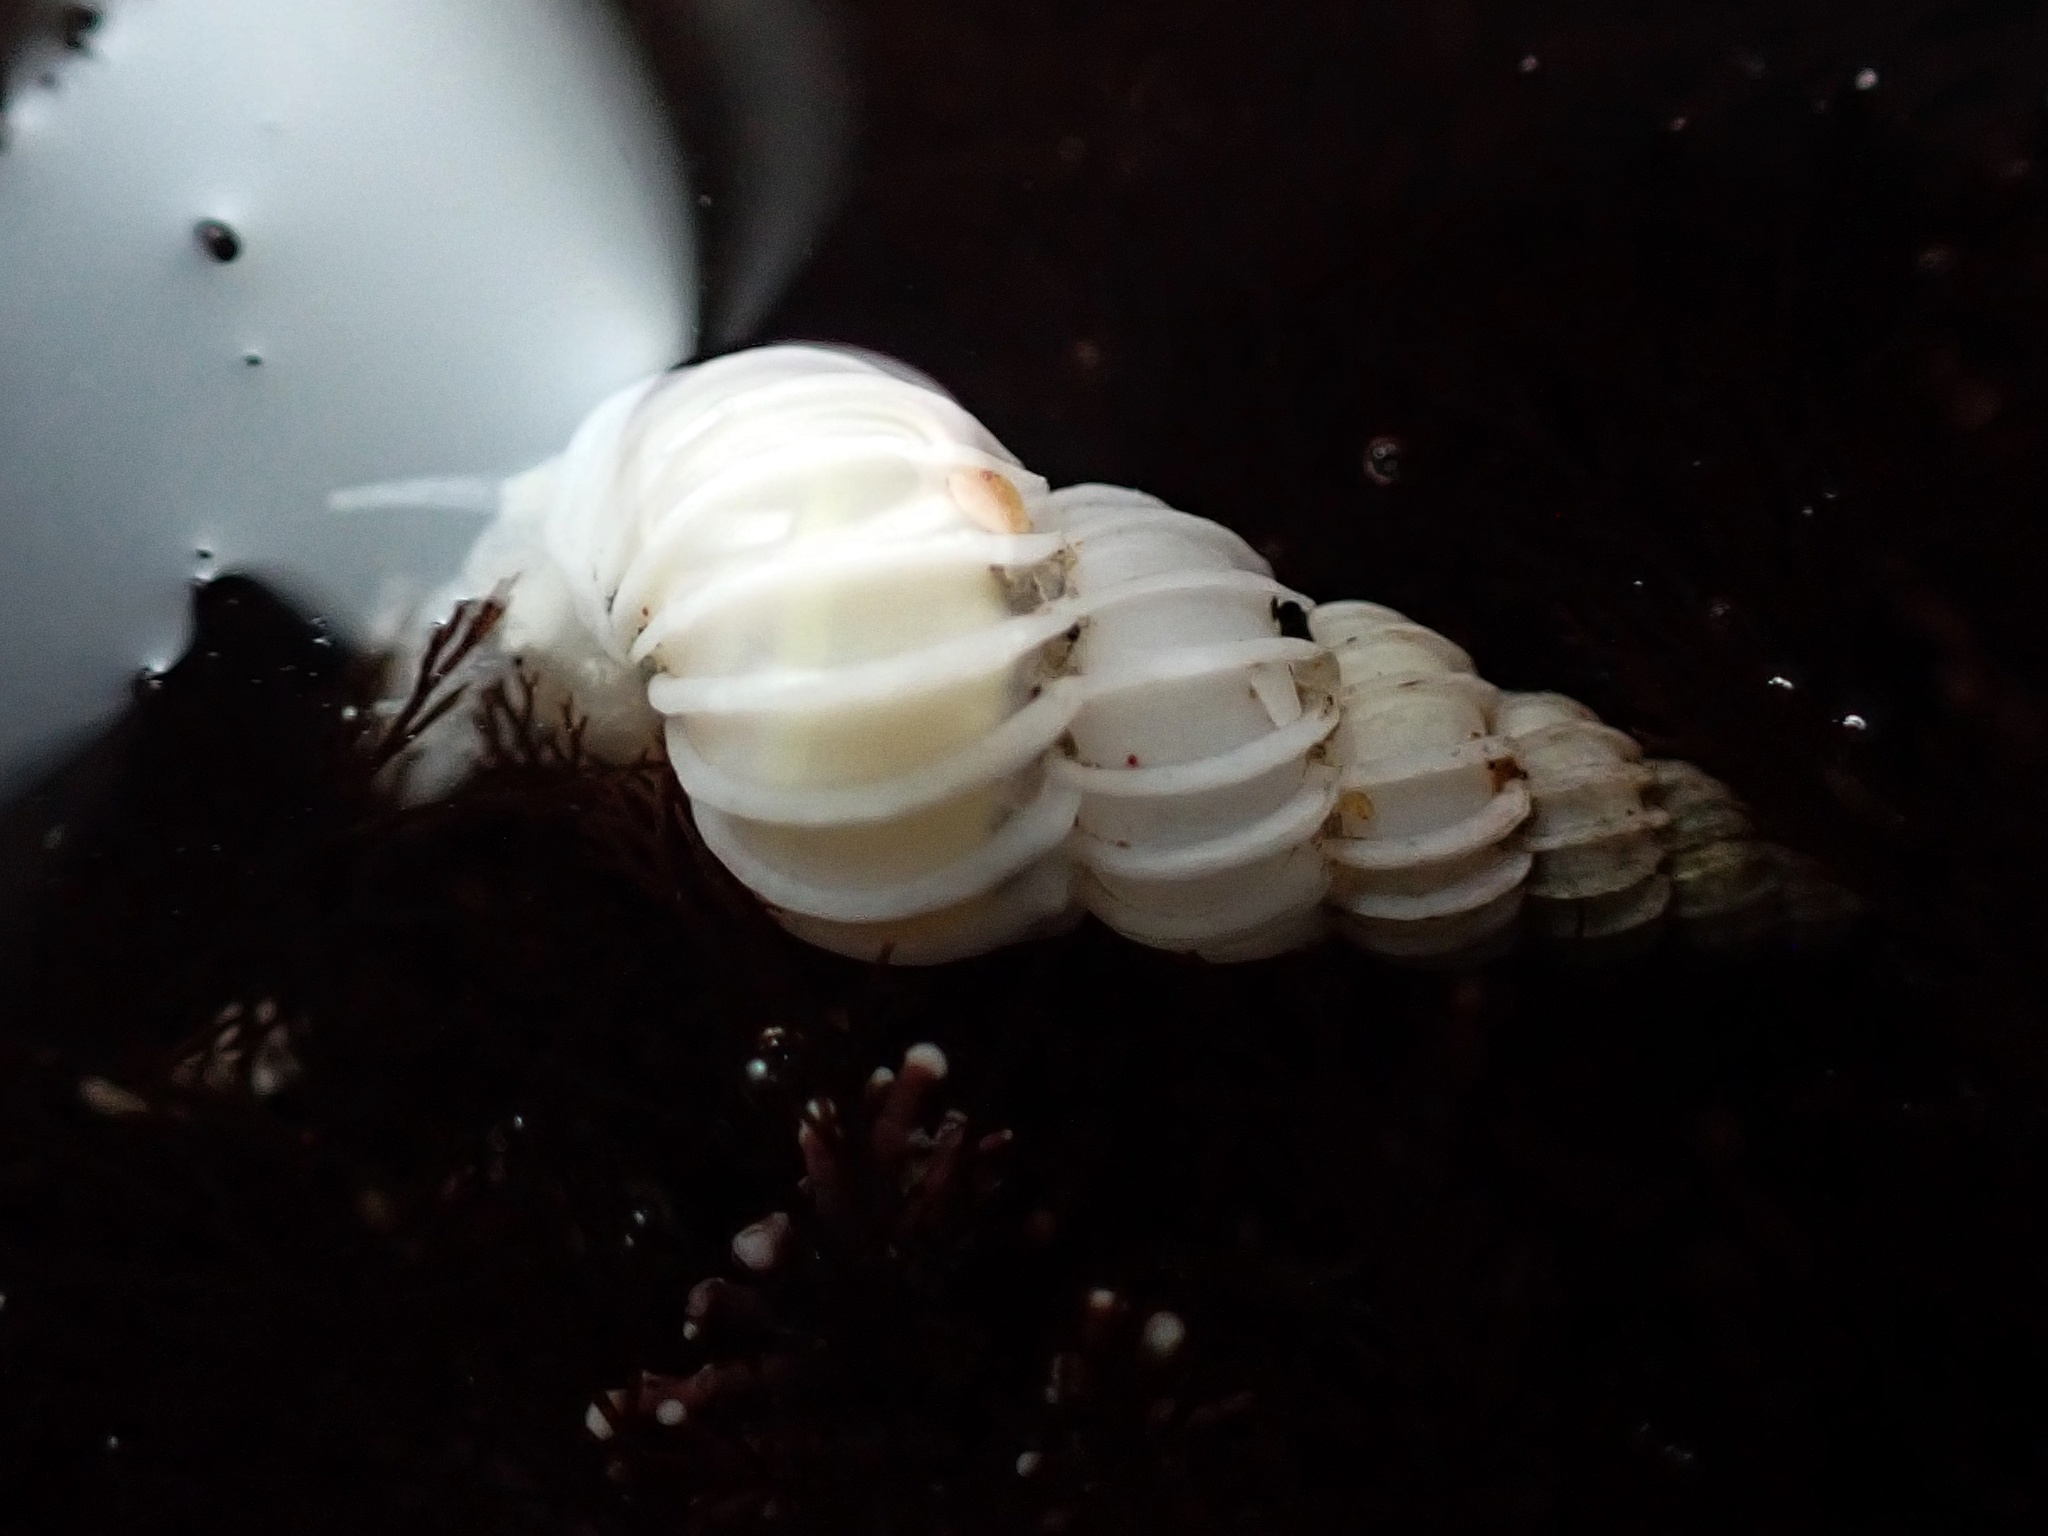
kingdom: Animalia
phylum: Mollusca
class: Gastropoda
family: Epitoniidae
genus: Epitonium
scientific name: Epitonium tinctum
